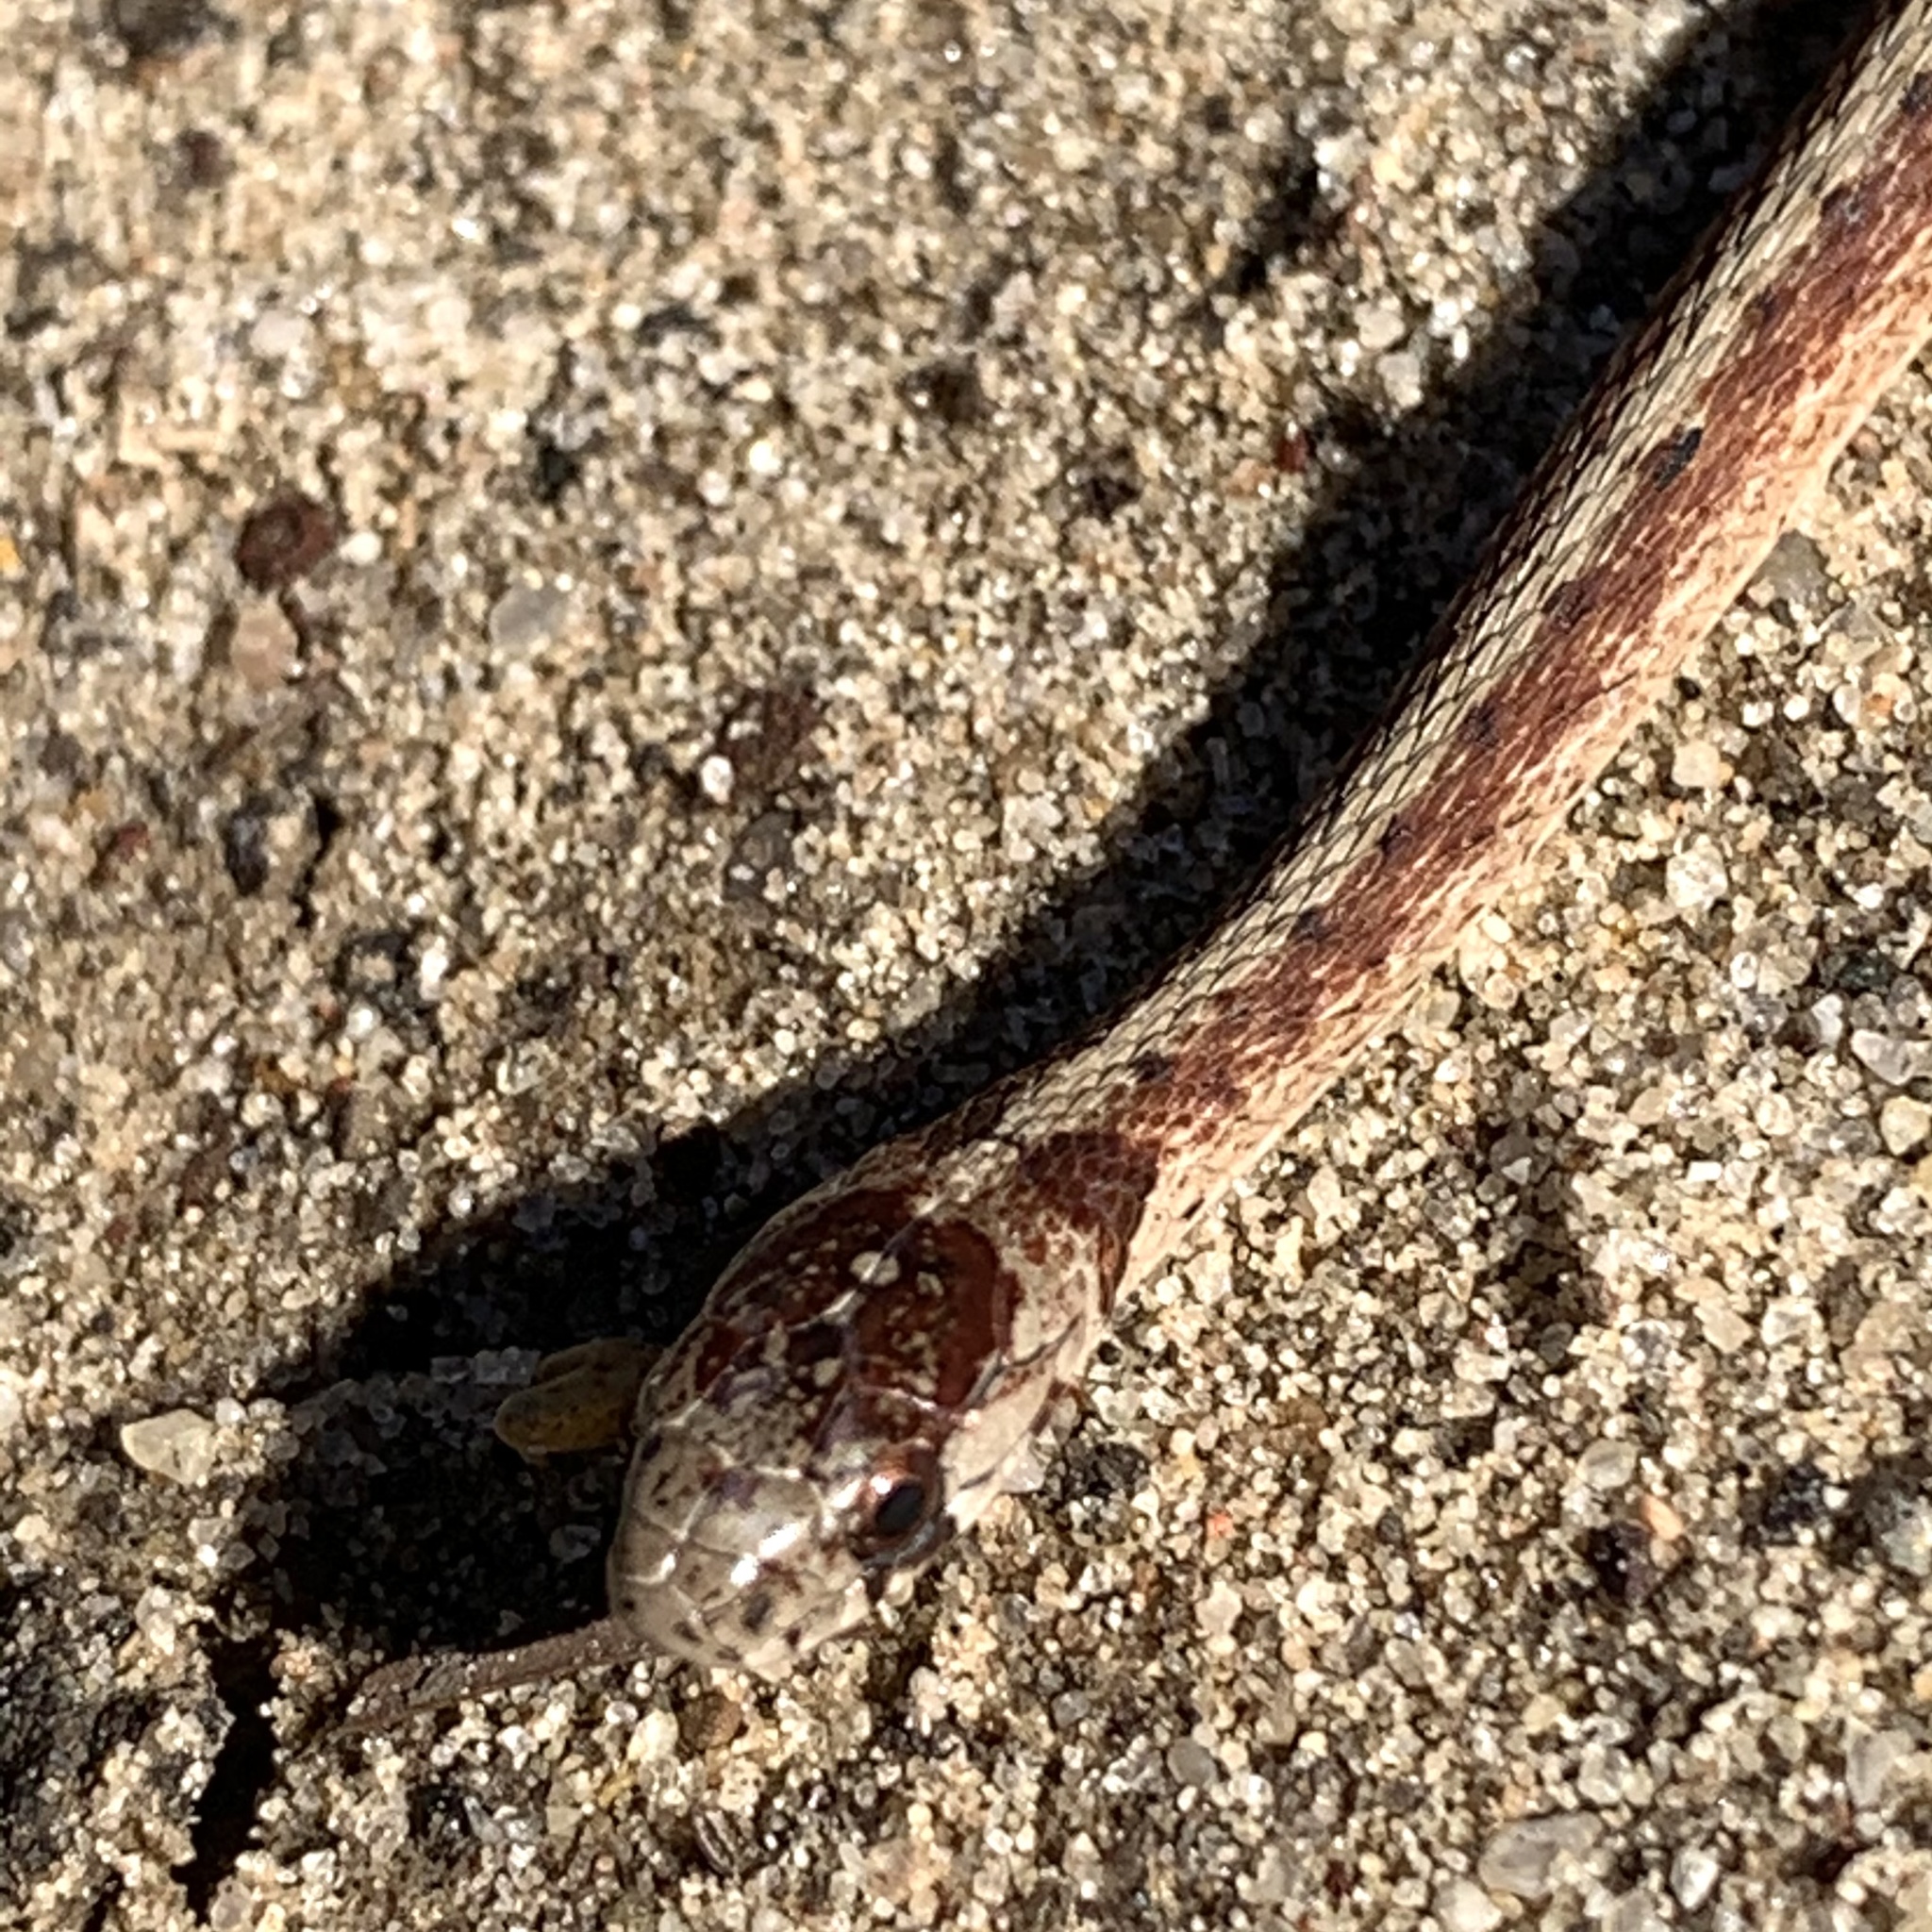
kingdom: Animalia
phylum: Chordata
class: Squamata
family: Colubridae
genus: Storeria
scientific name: Storeria dekayi
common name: (dekay’s) brown snake
